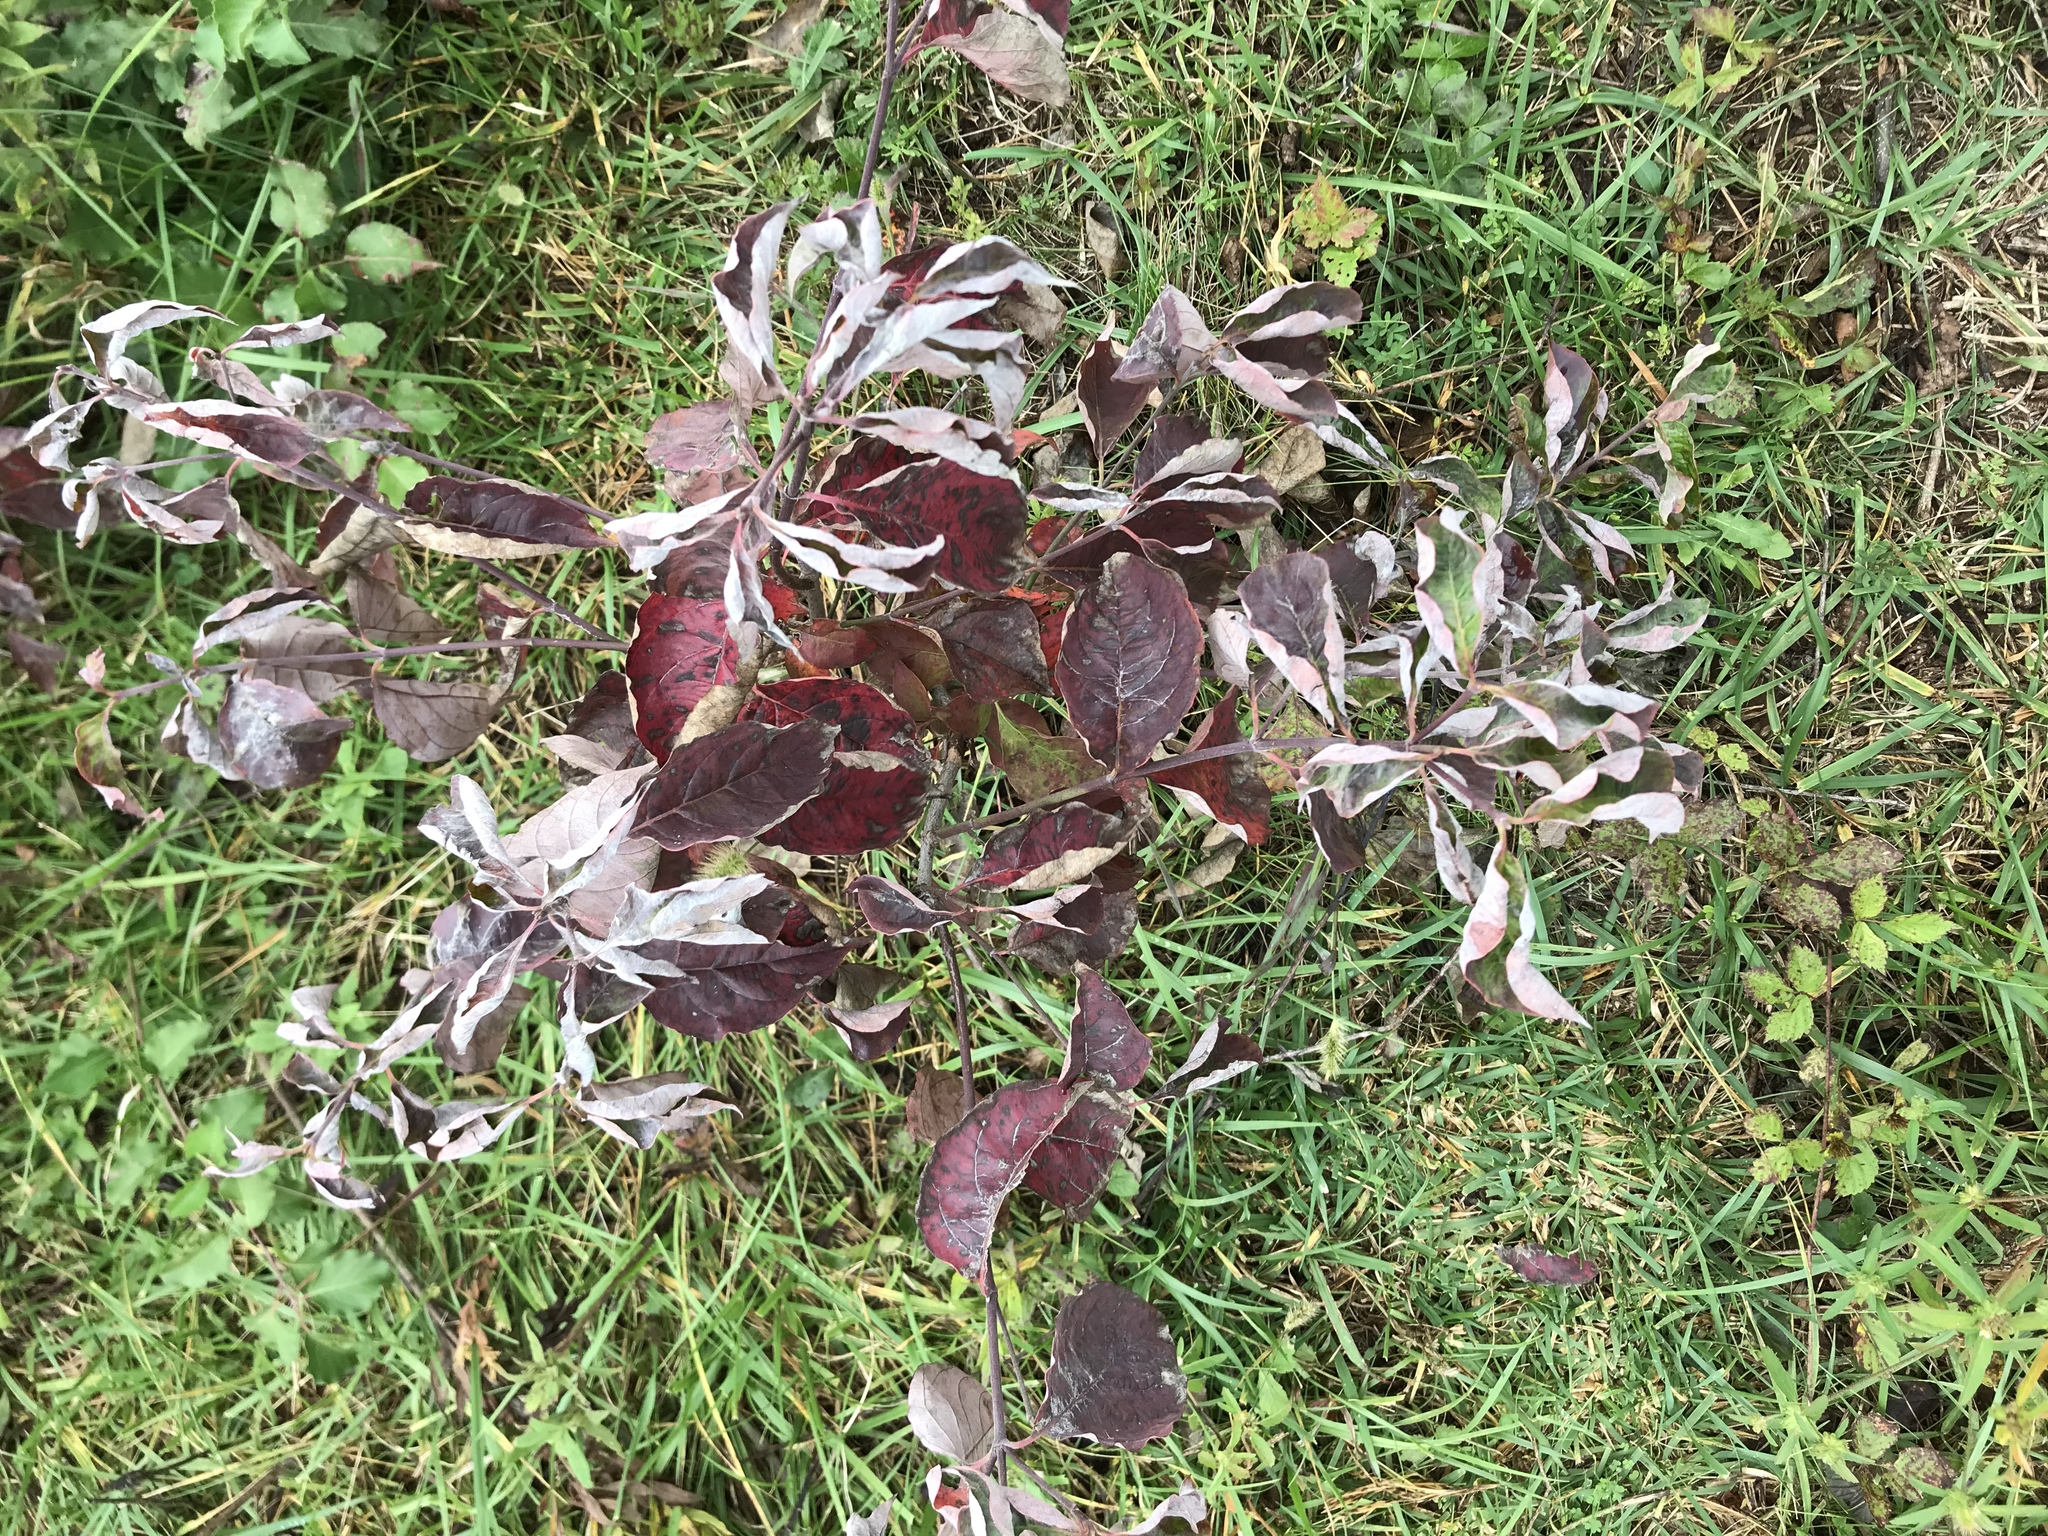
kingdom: Plantae
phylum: Tracheophyta
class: Magnoliopsida
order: Cornales
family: Cornaceae
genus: Cornus
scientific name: Cornus florida
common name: Flowering dogwood
